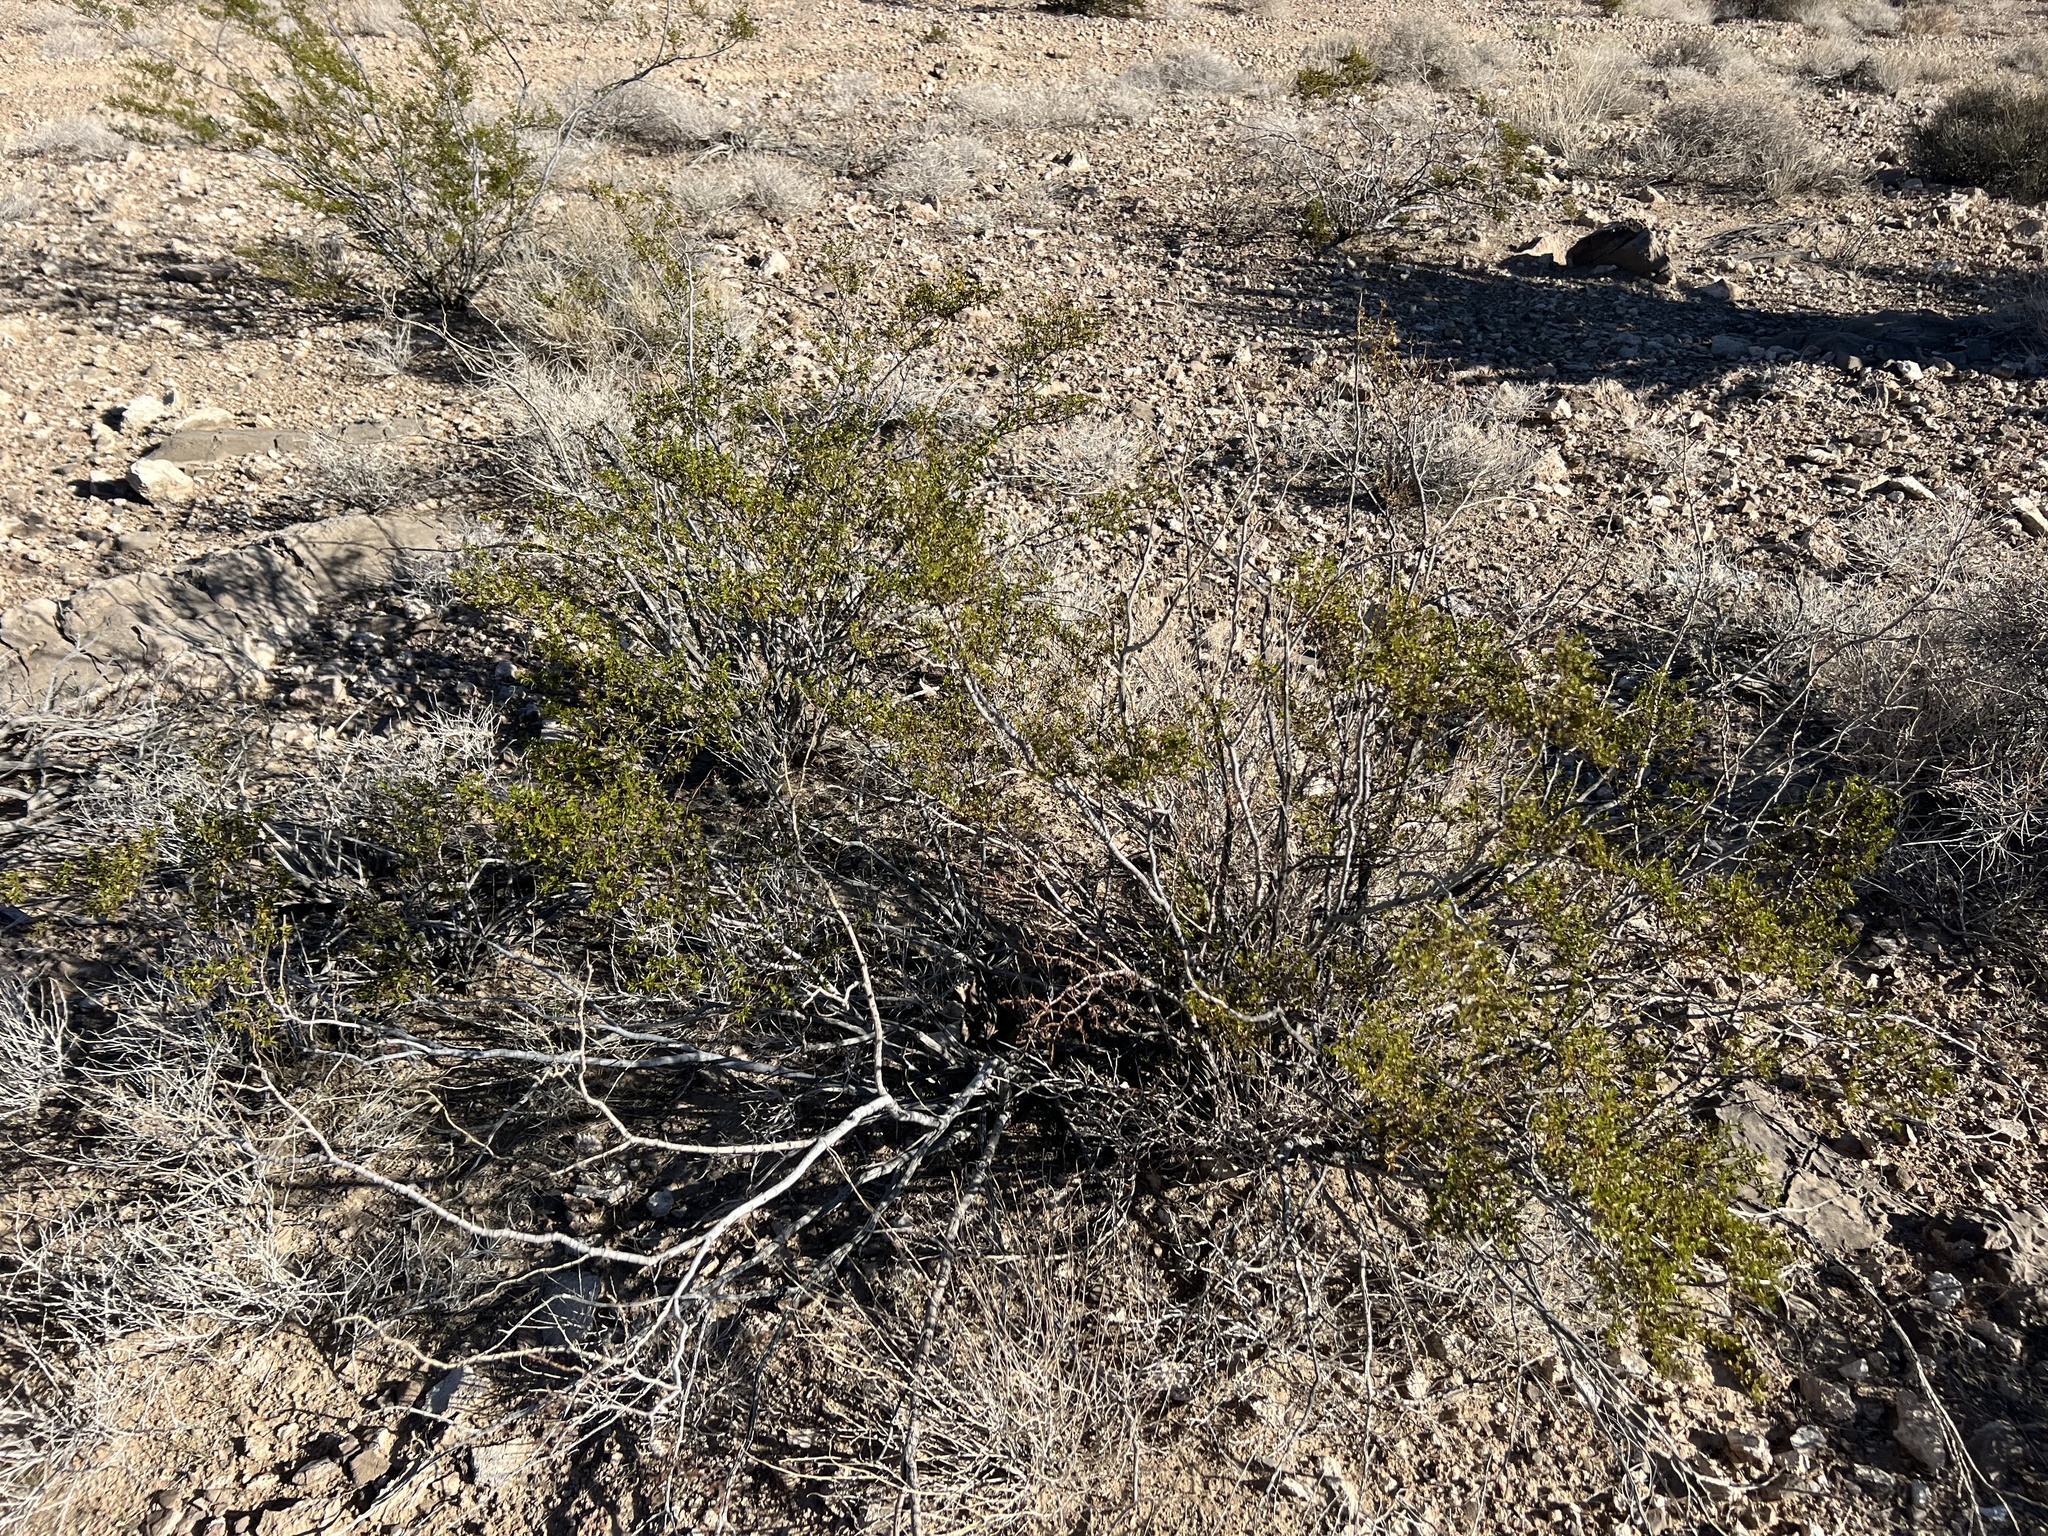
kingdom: Plantae
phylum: Tracheophyta
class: Magnoliopsida
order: Zygophyllales
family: Zygophyllaceae
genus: Larrea
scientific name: Larrea tridentata
